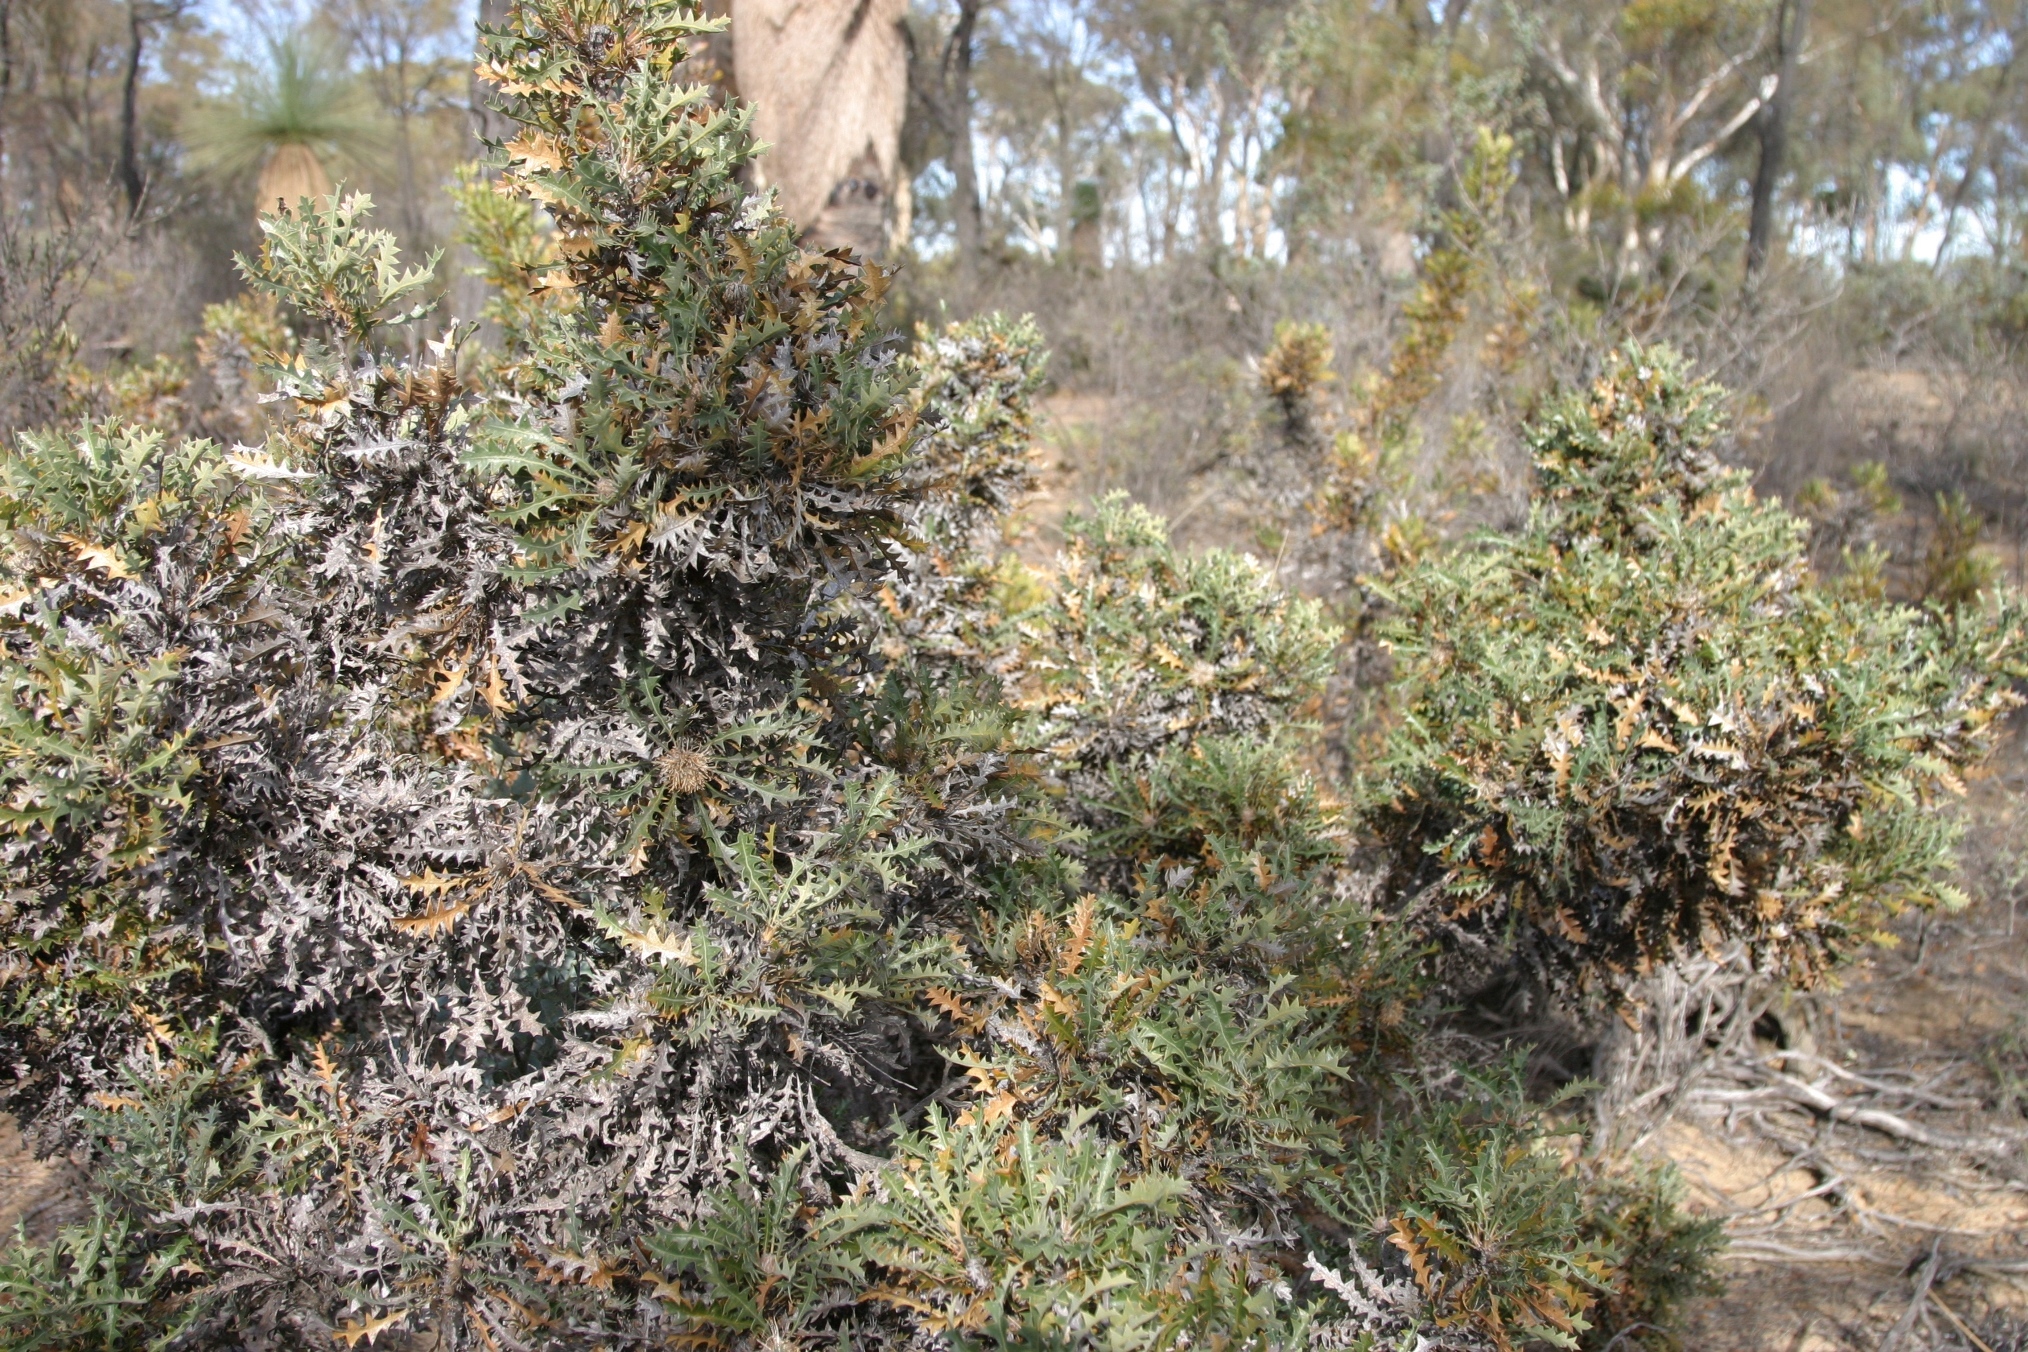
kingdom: Plantae
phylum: Tracheophyta
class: Magnoliopsida
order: Proteales
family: Proteaceae
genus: Banksia
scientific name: Banksia armata
